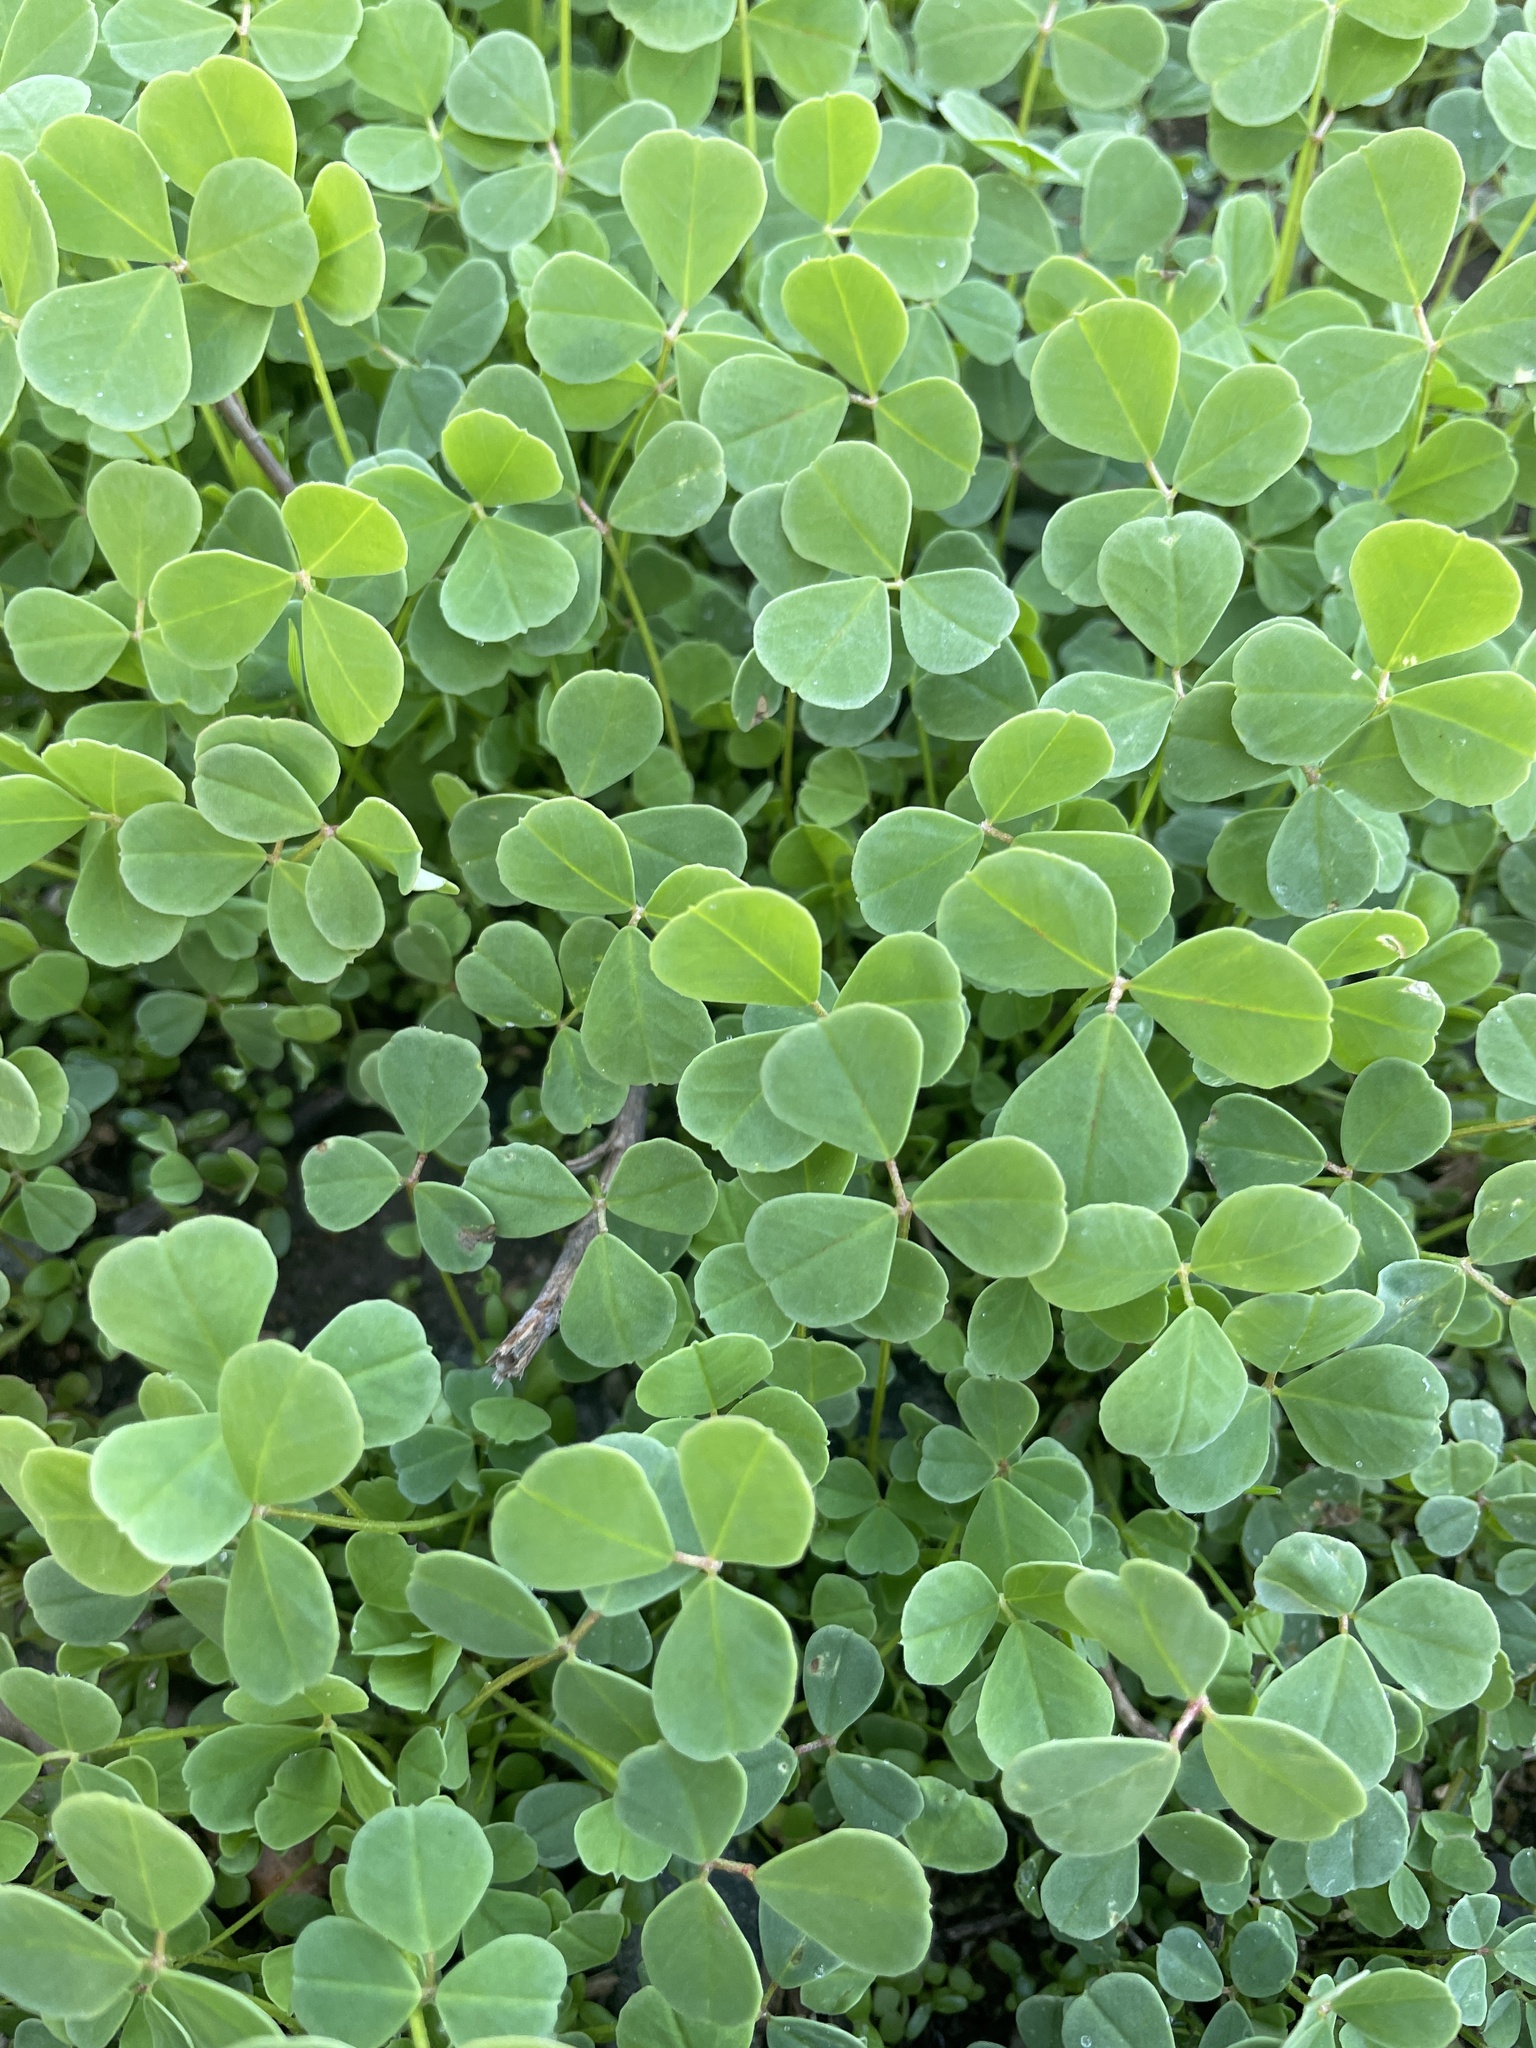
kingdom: Plantae
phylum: Tracheophyta
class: Magnoliopsida
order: Fabales
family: Fabaceae
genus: Medicago
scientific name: Medicago polymorpha
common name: Burclover
